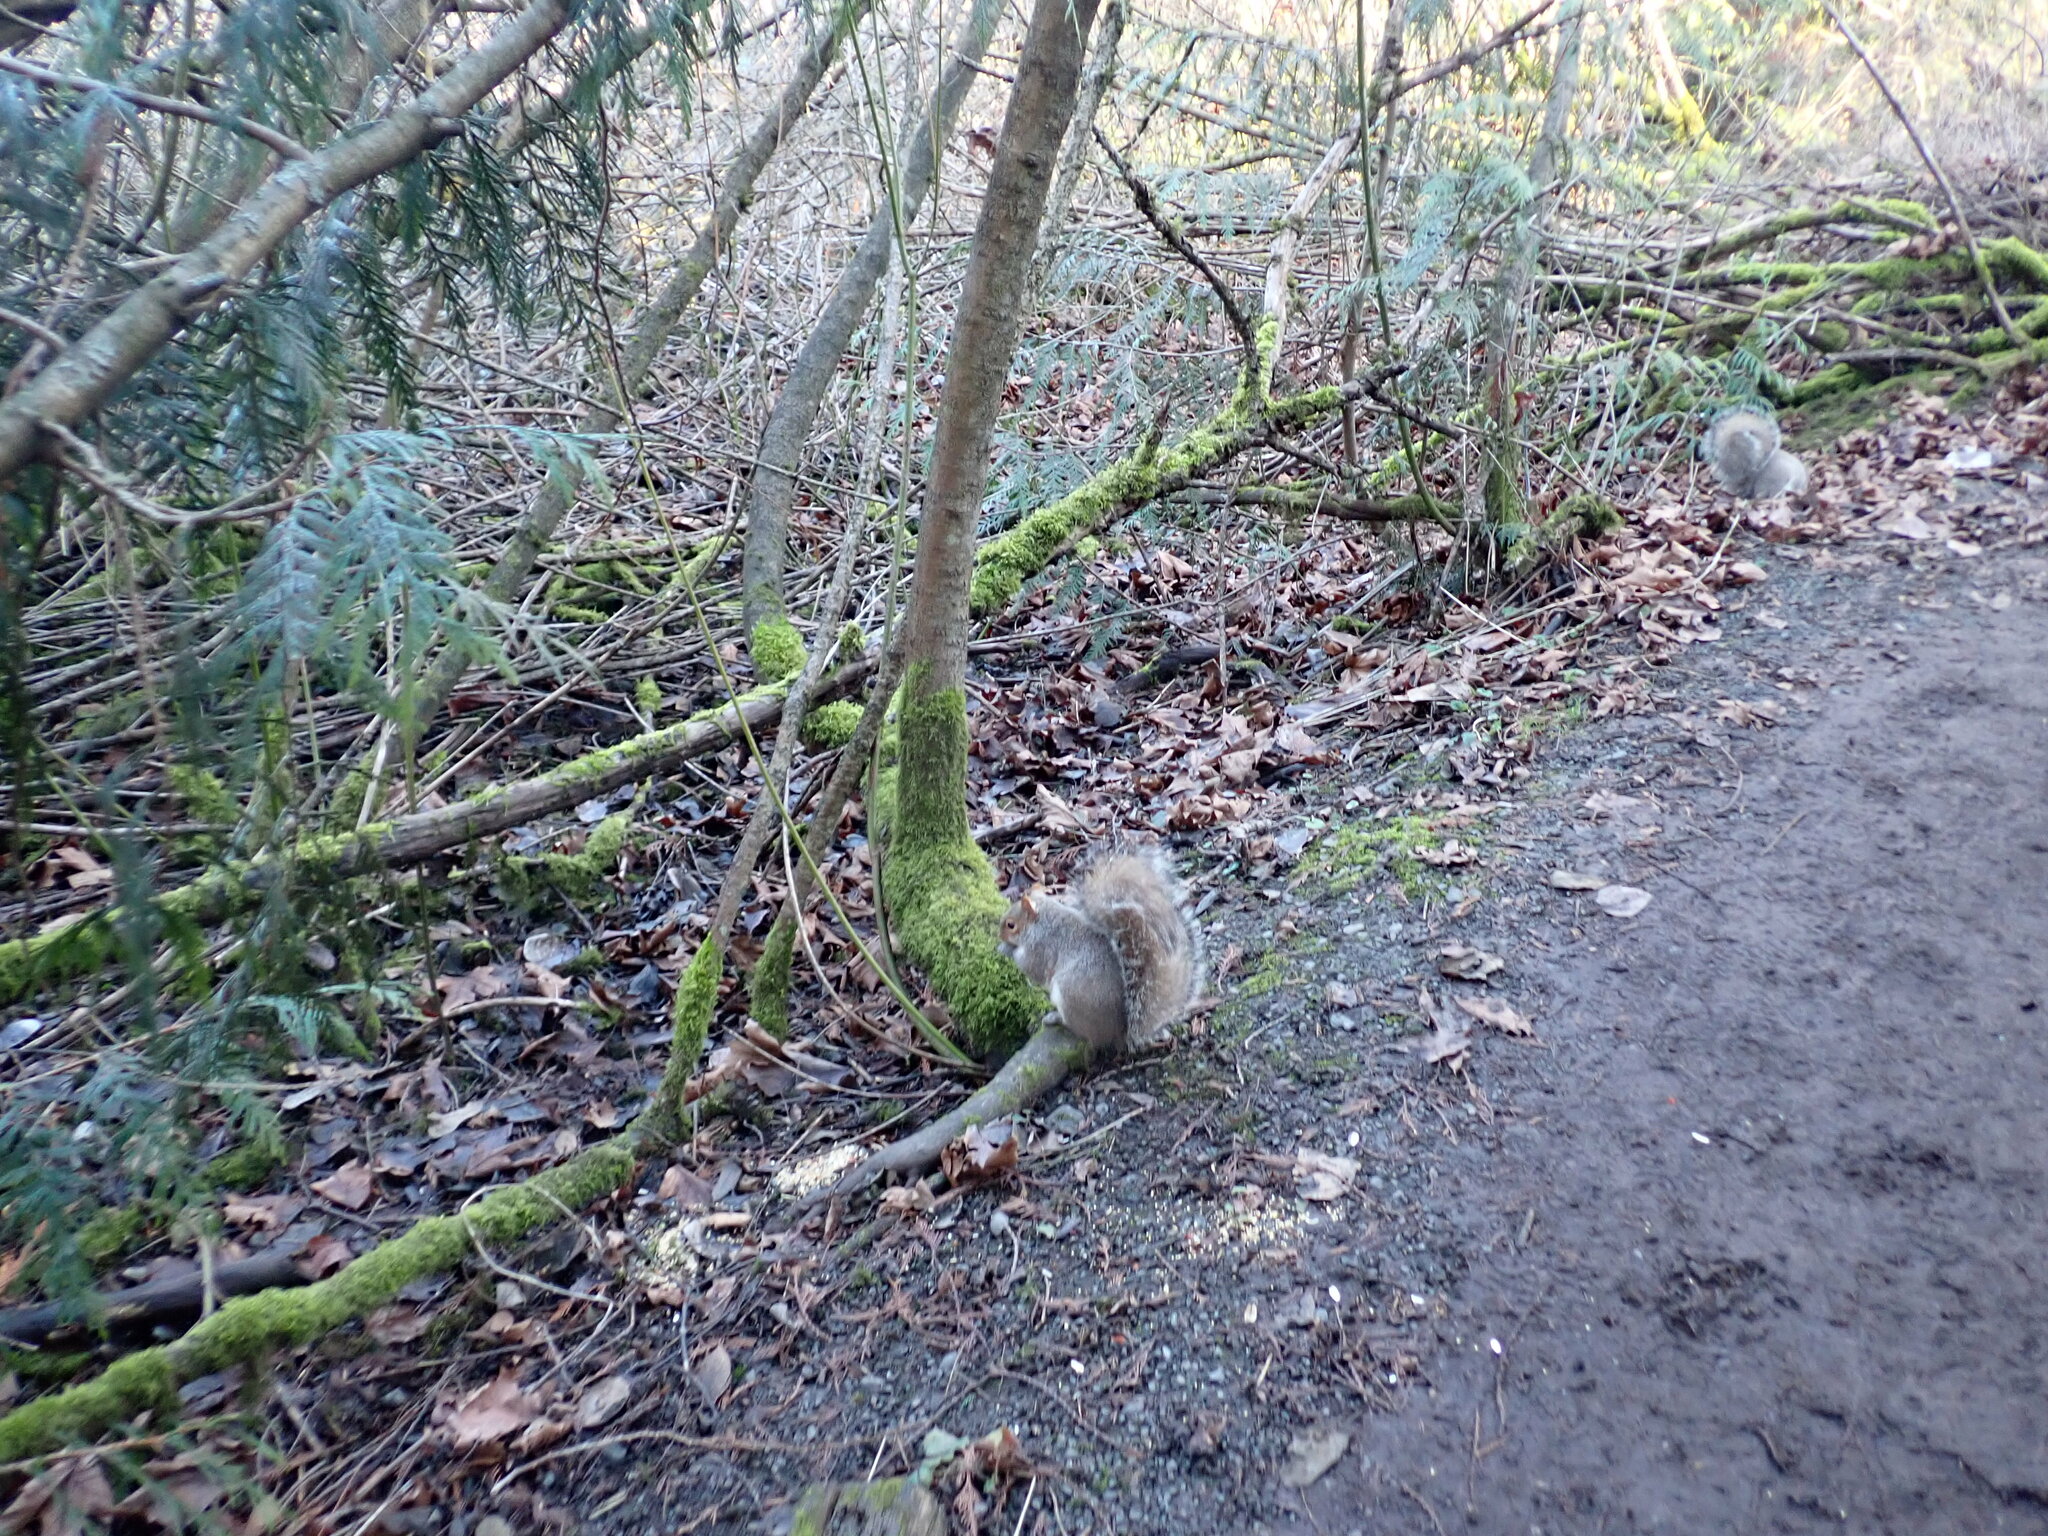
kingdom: Animalia
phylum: Chordata
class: Mammalia
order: Rodentia
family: Sciuridae
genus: Sciurus
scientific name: Sciurus carolinensis
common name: Eastern gray squirrel
